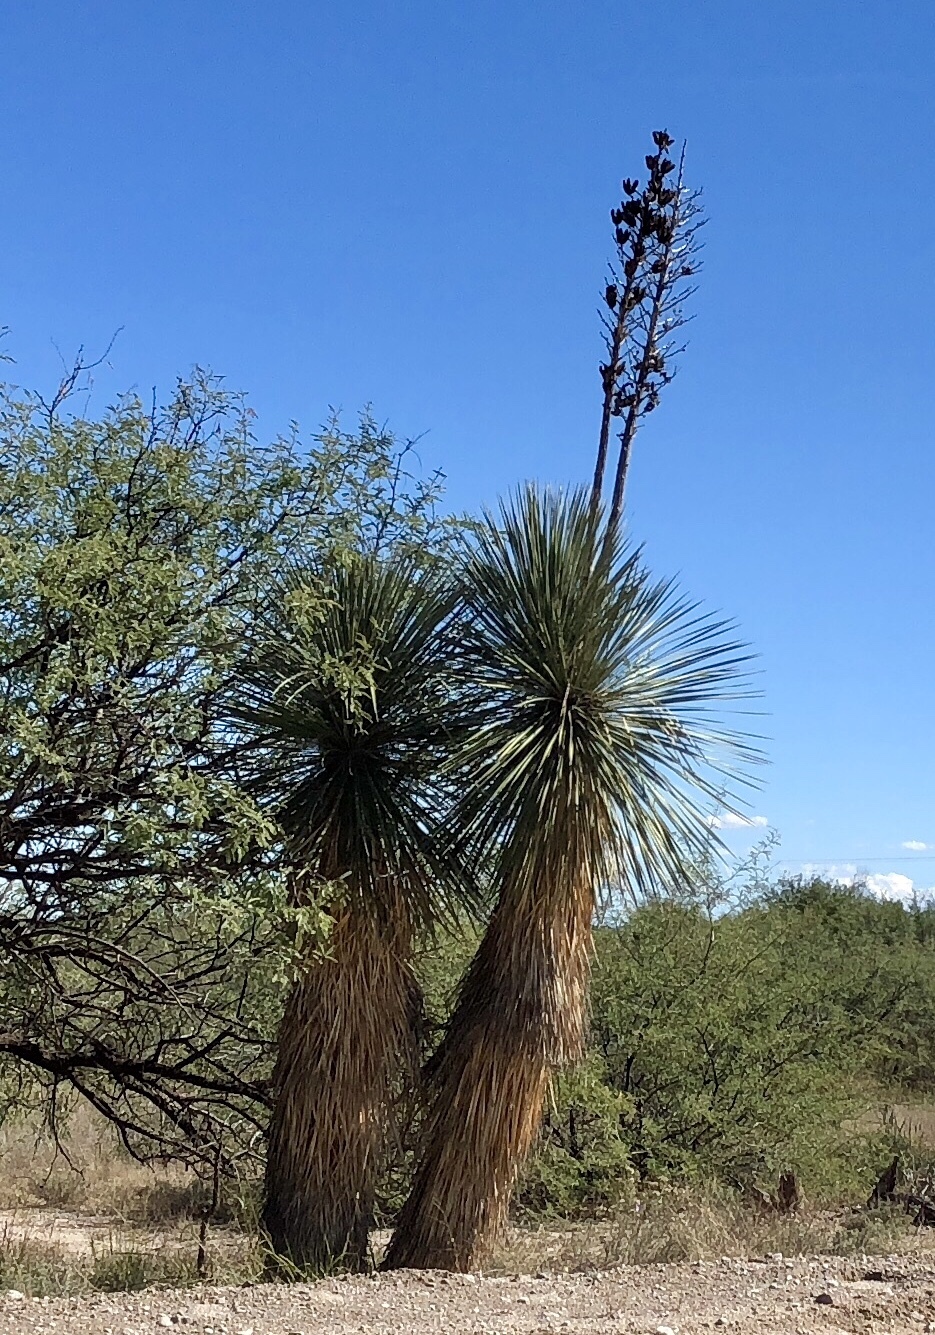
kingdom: Plantae
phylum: Tracheophyta
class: Liliopsida
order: Asparagales
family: Asparagaceae
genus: Yucca
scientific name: Yucca elata
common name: Palmella
